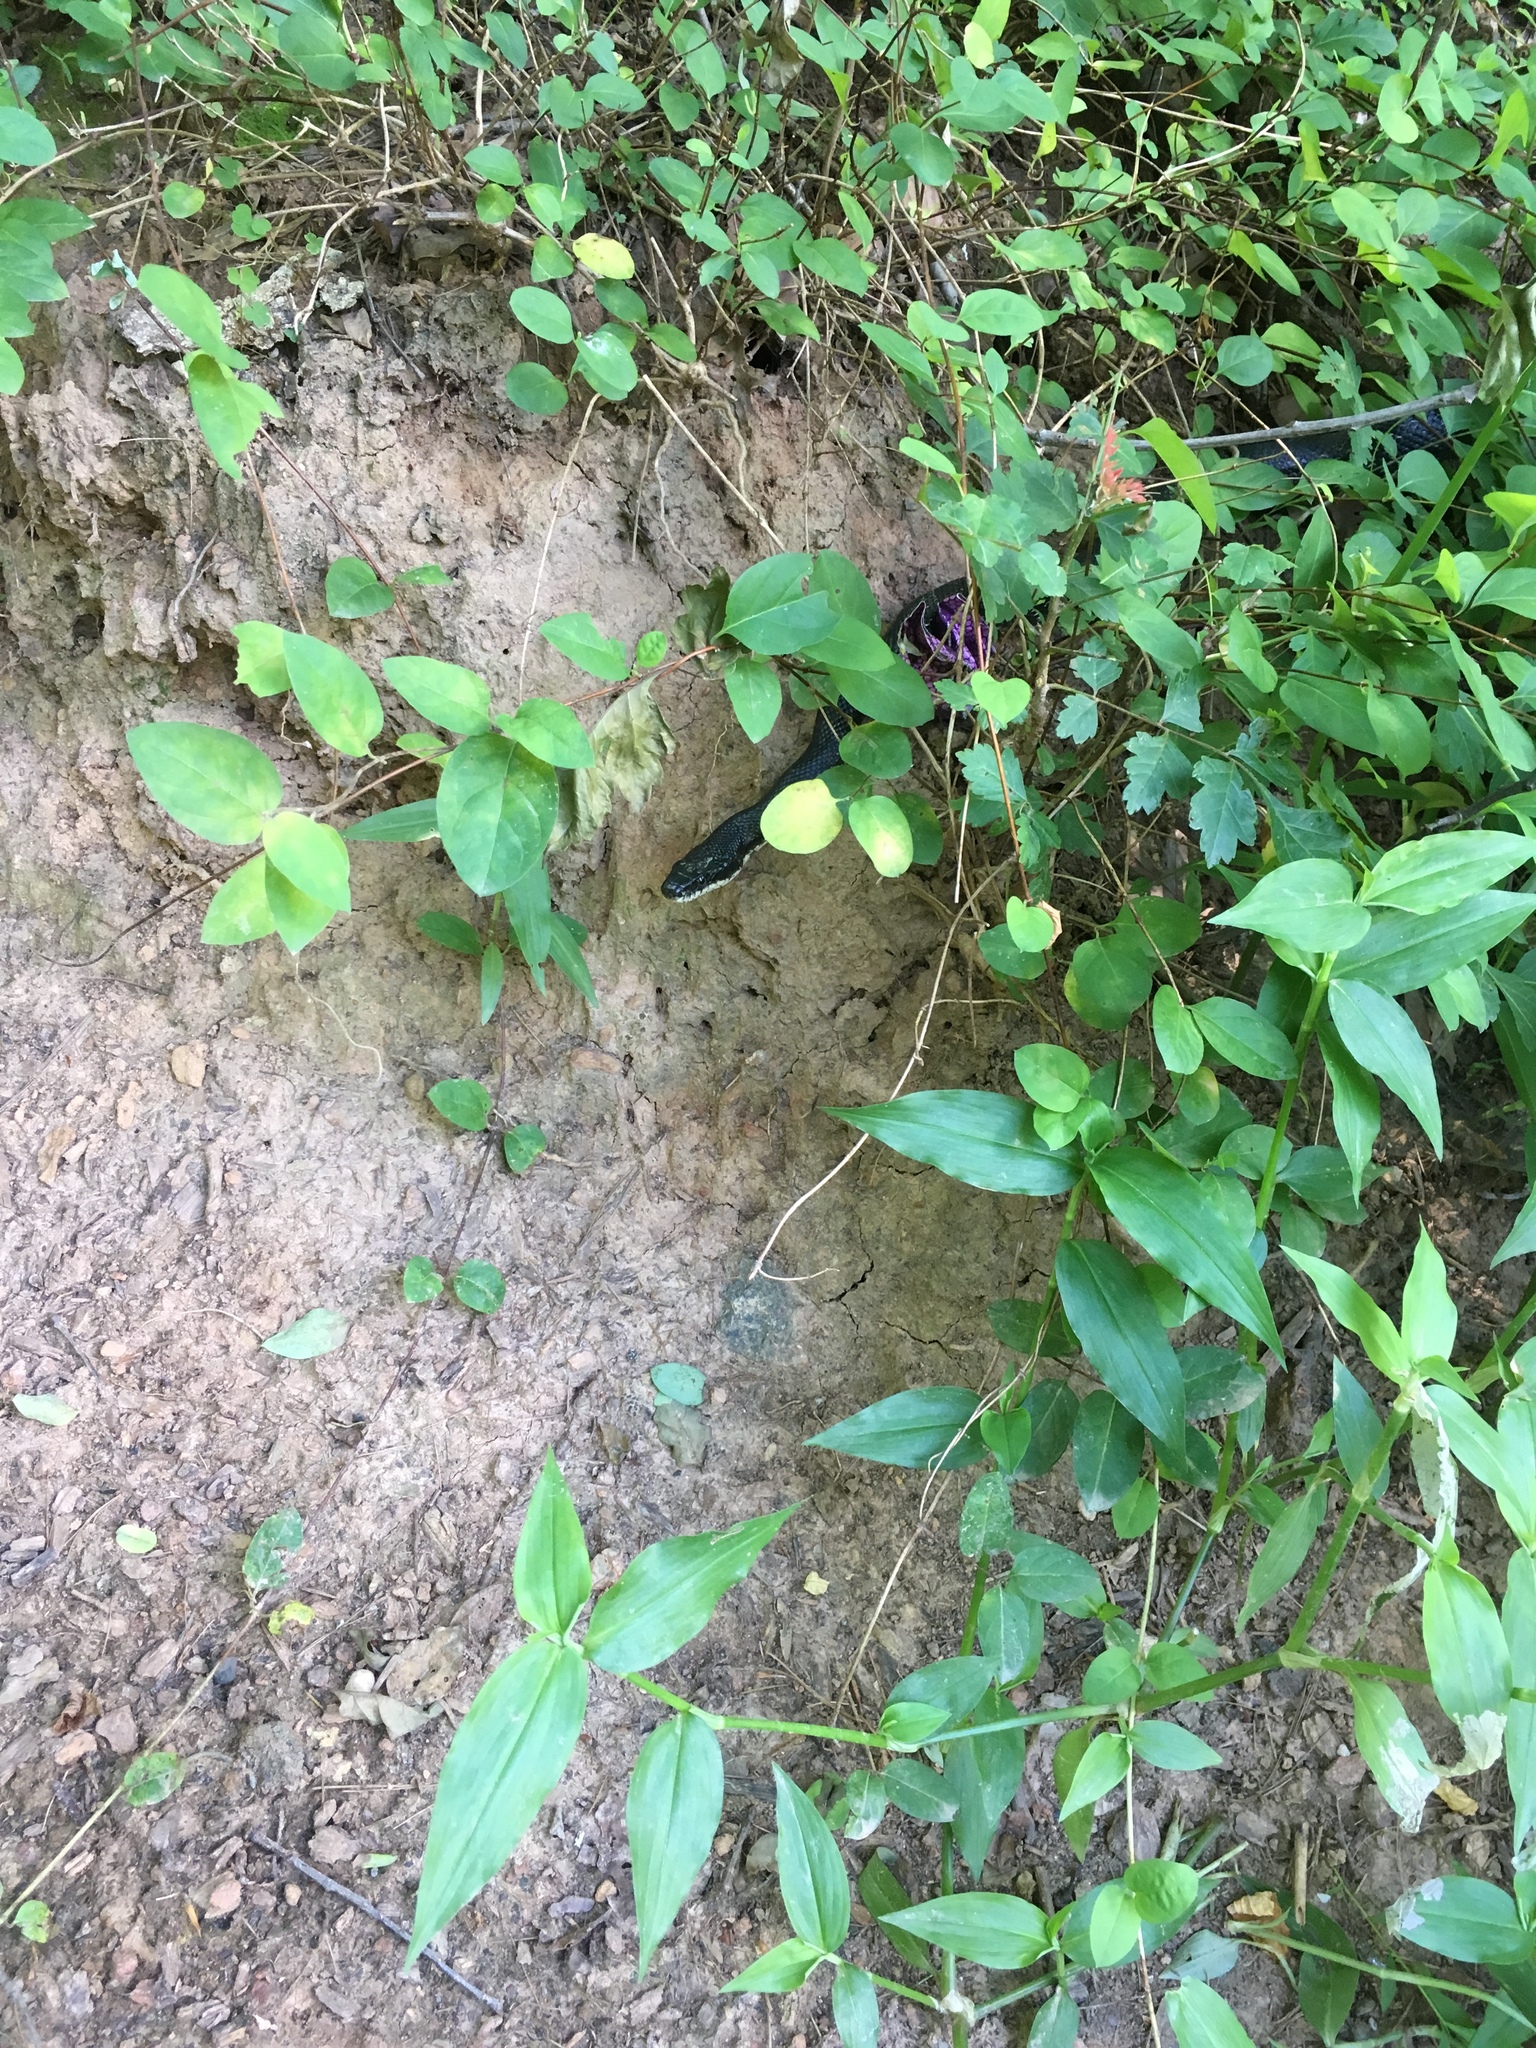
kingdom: Animalia
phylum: Chordata
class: Squamata
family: Colubridae
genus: Pantherophis
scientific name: Pantherophis alleghaniensis
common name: Eastern rat snake
